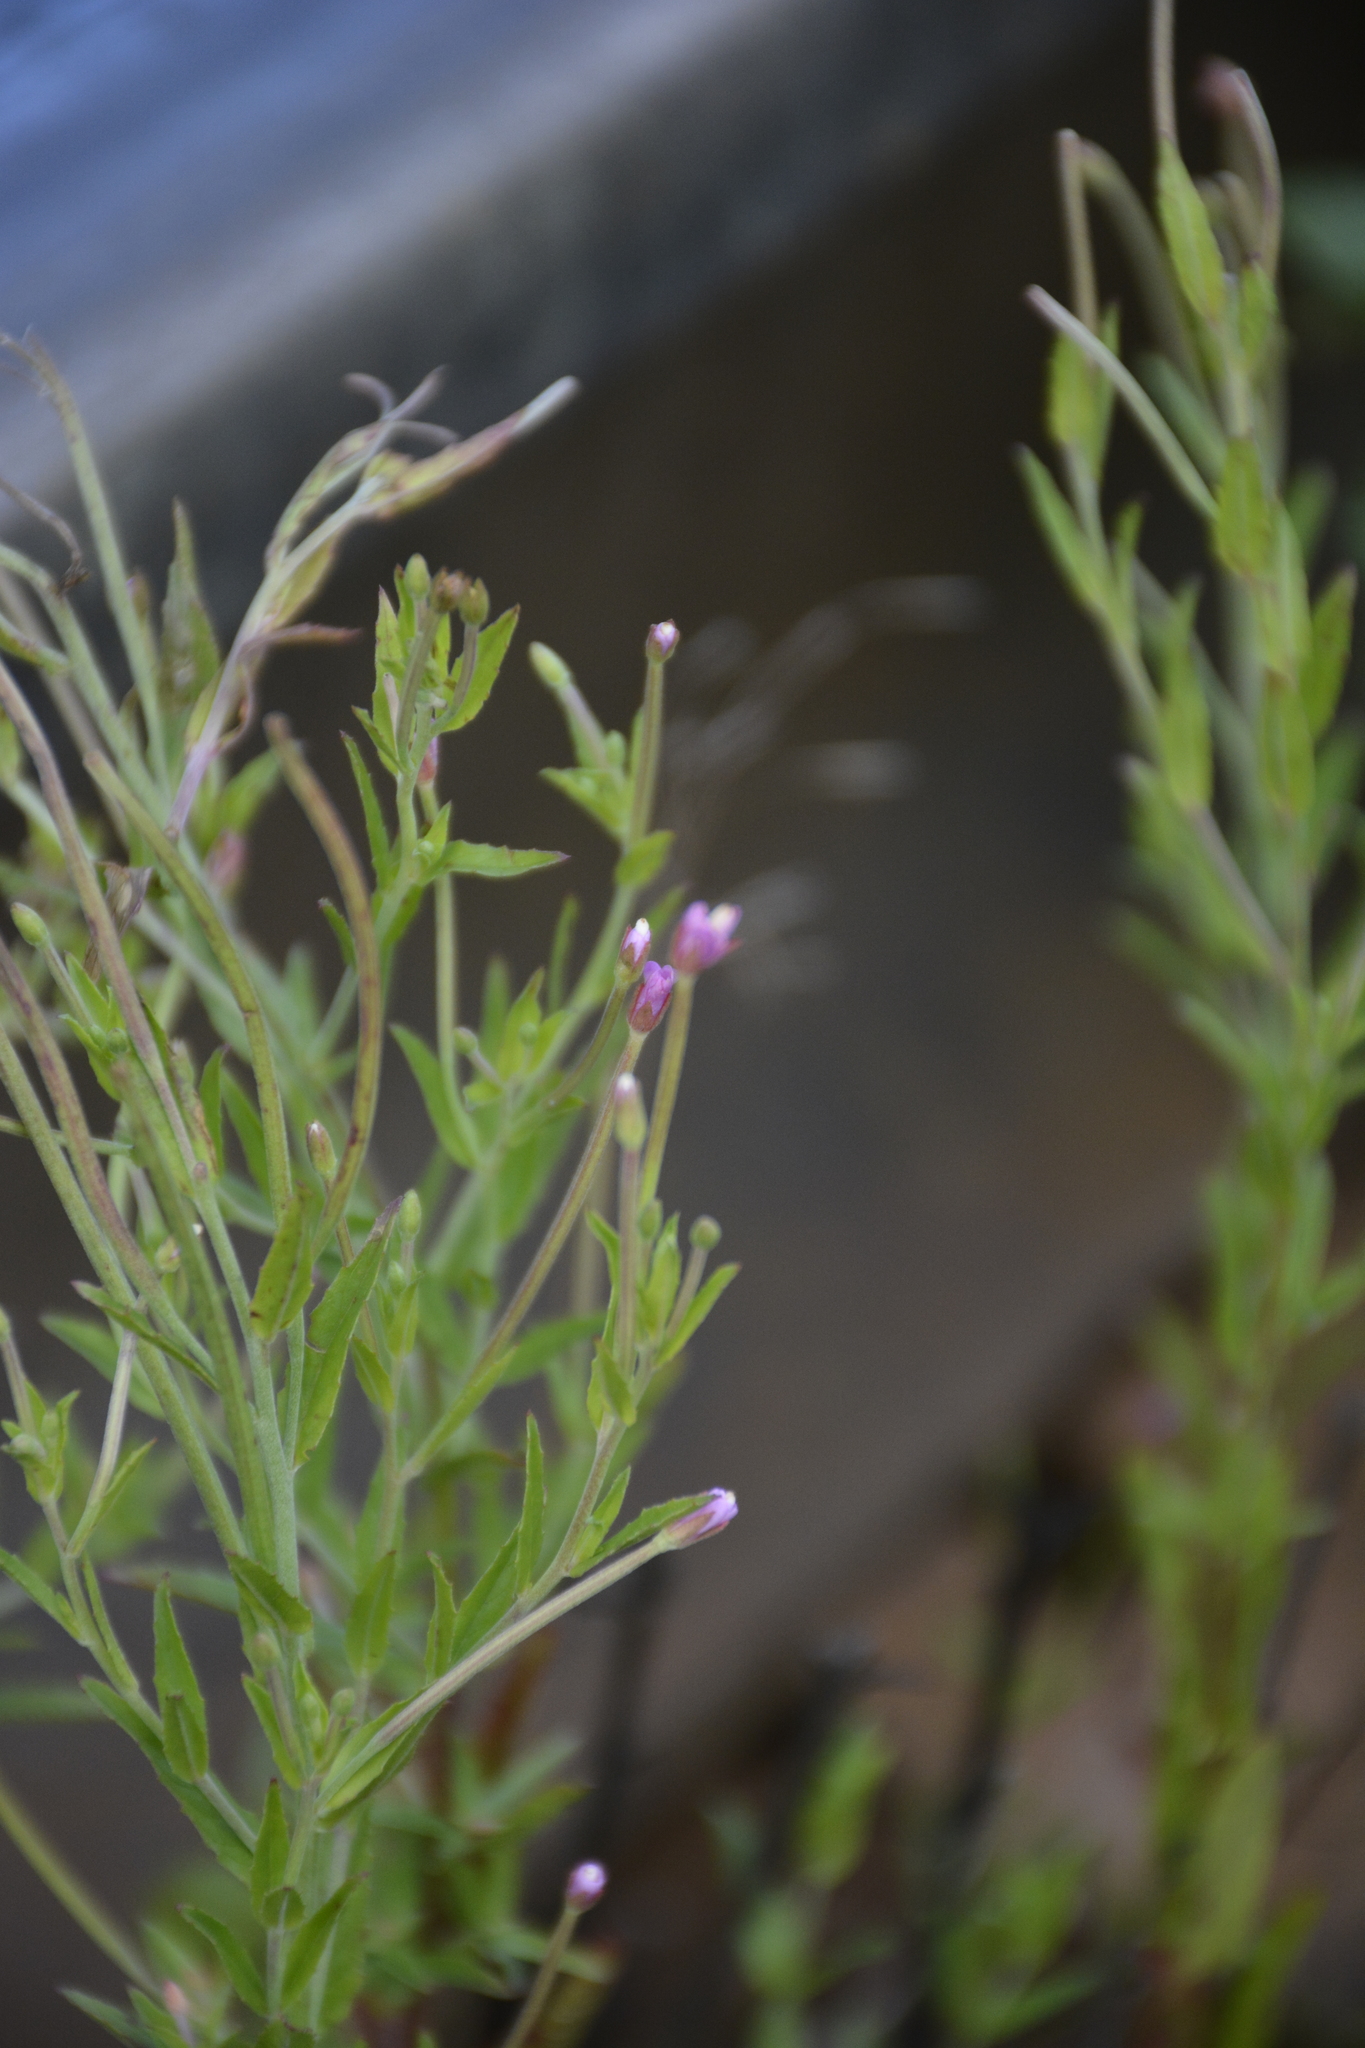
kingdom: Plantae
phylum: Tracheophyta
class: Magnoliopsida
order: Myrtales
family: Onagraceae
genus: Epilobium
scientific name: Epilobium tetragonum
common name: Square-stemmed willowherb
